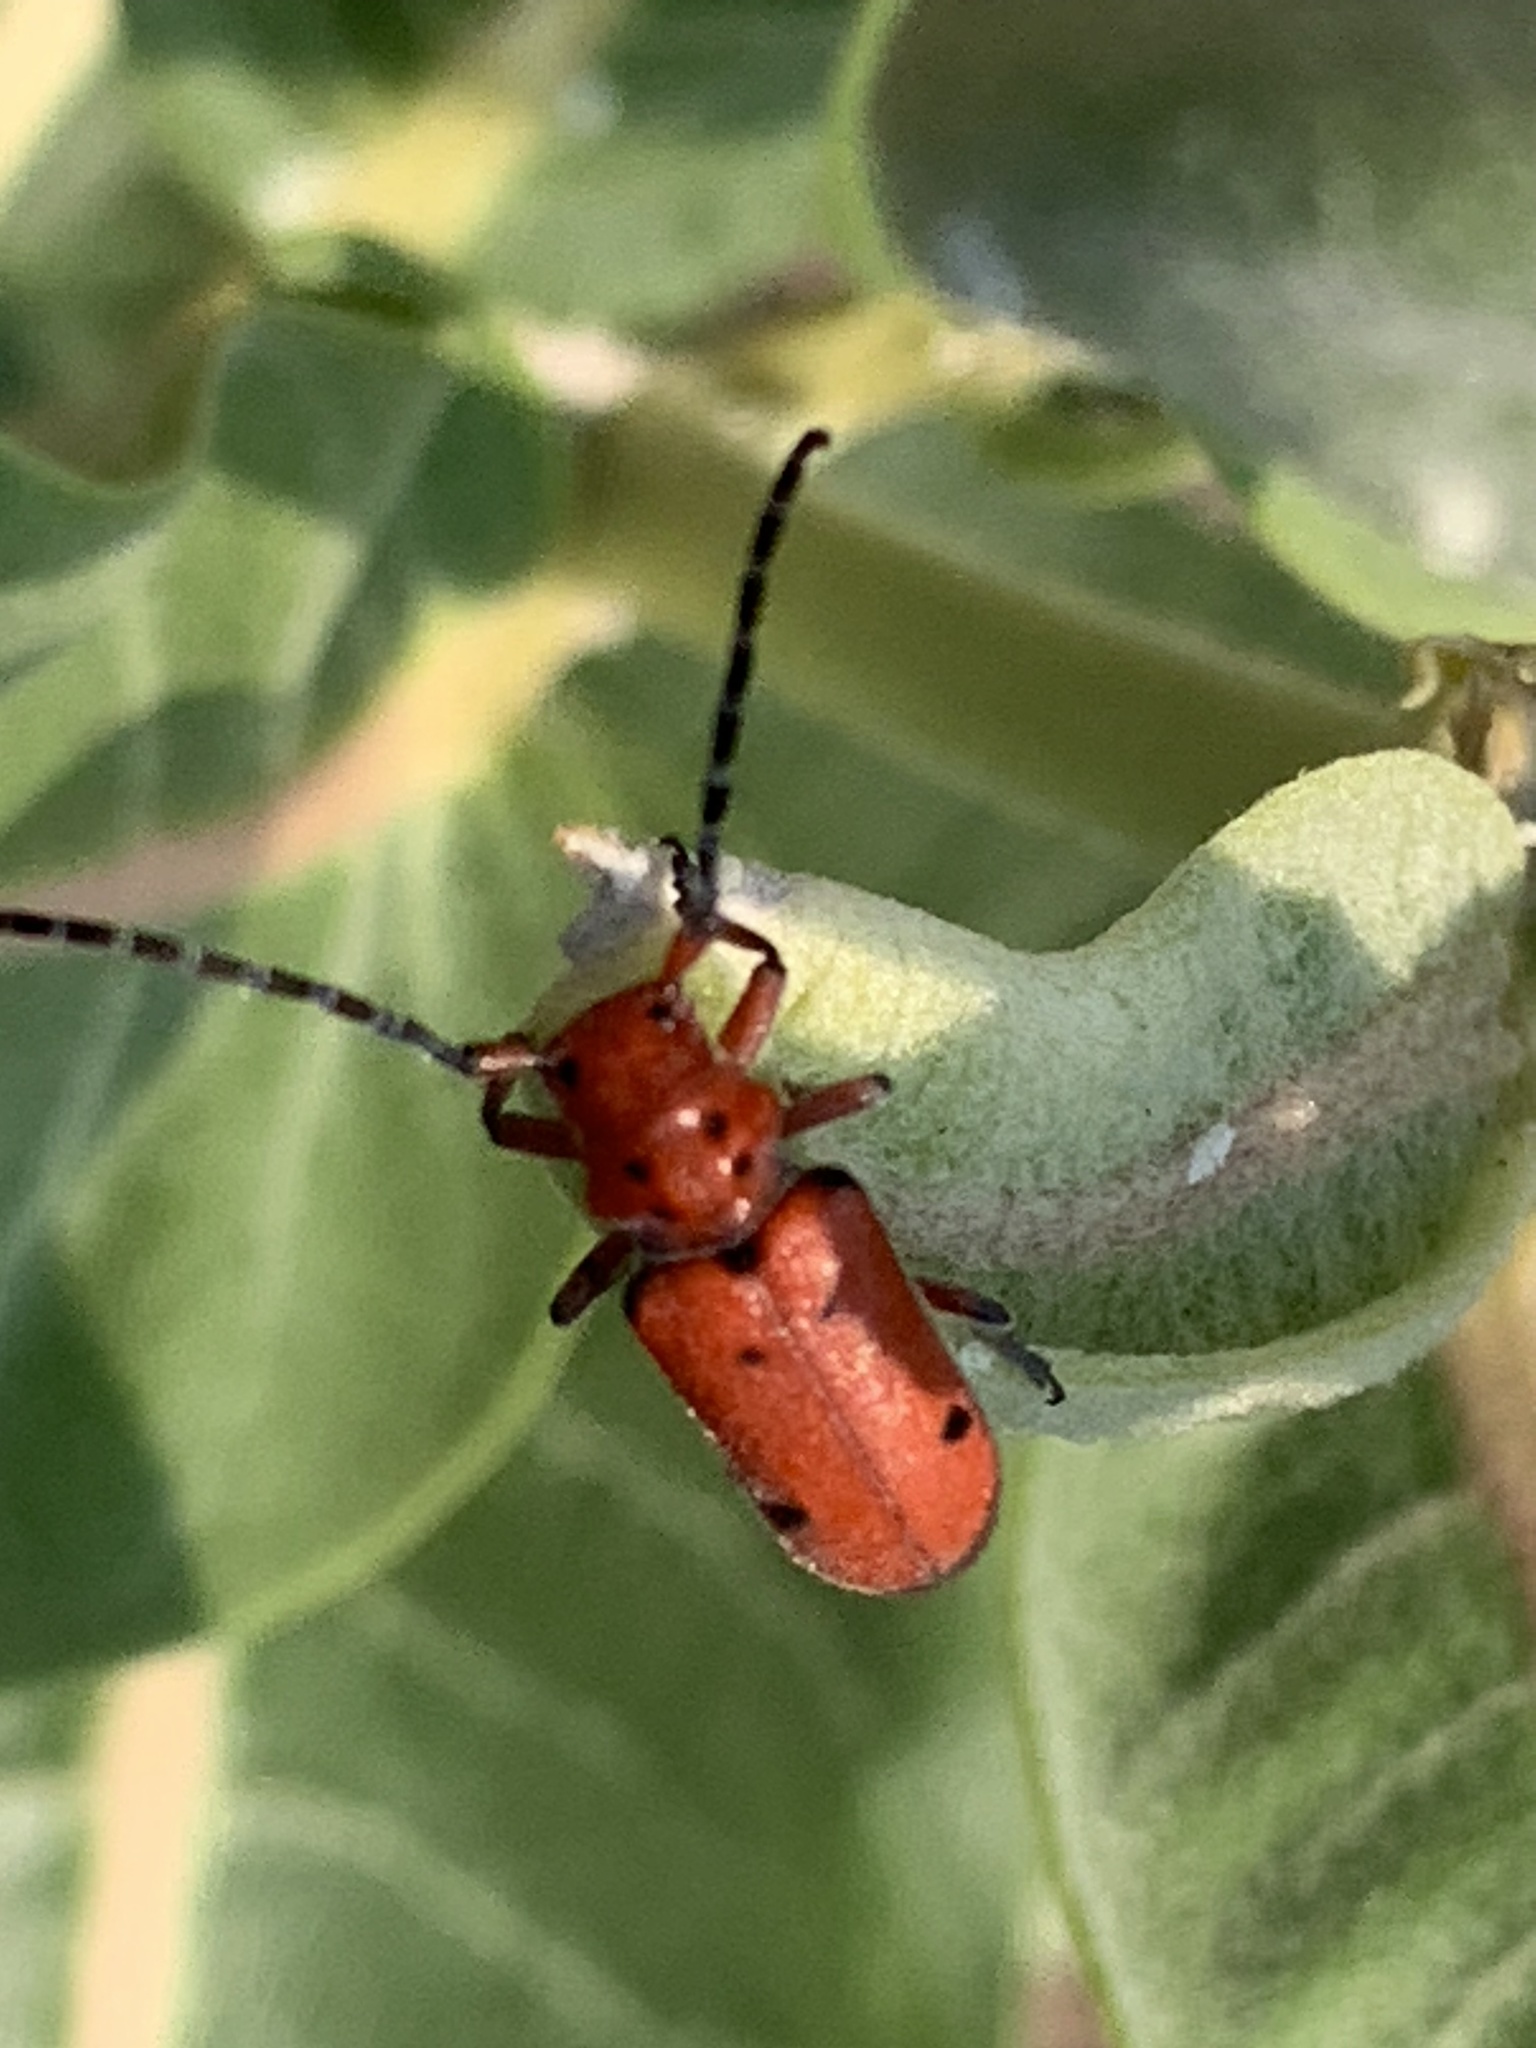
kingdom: Animalia
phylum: Arthropoda
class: Insecta
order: Coleoptera
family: Cerambycidae
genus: Tetraopes
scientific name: Tetraopes femoratus
